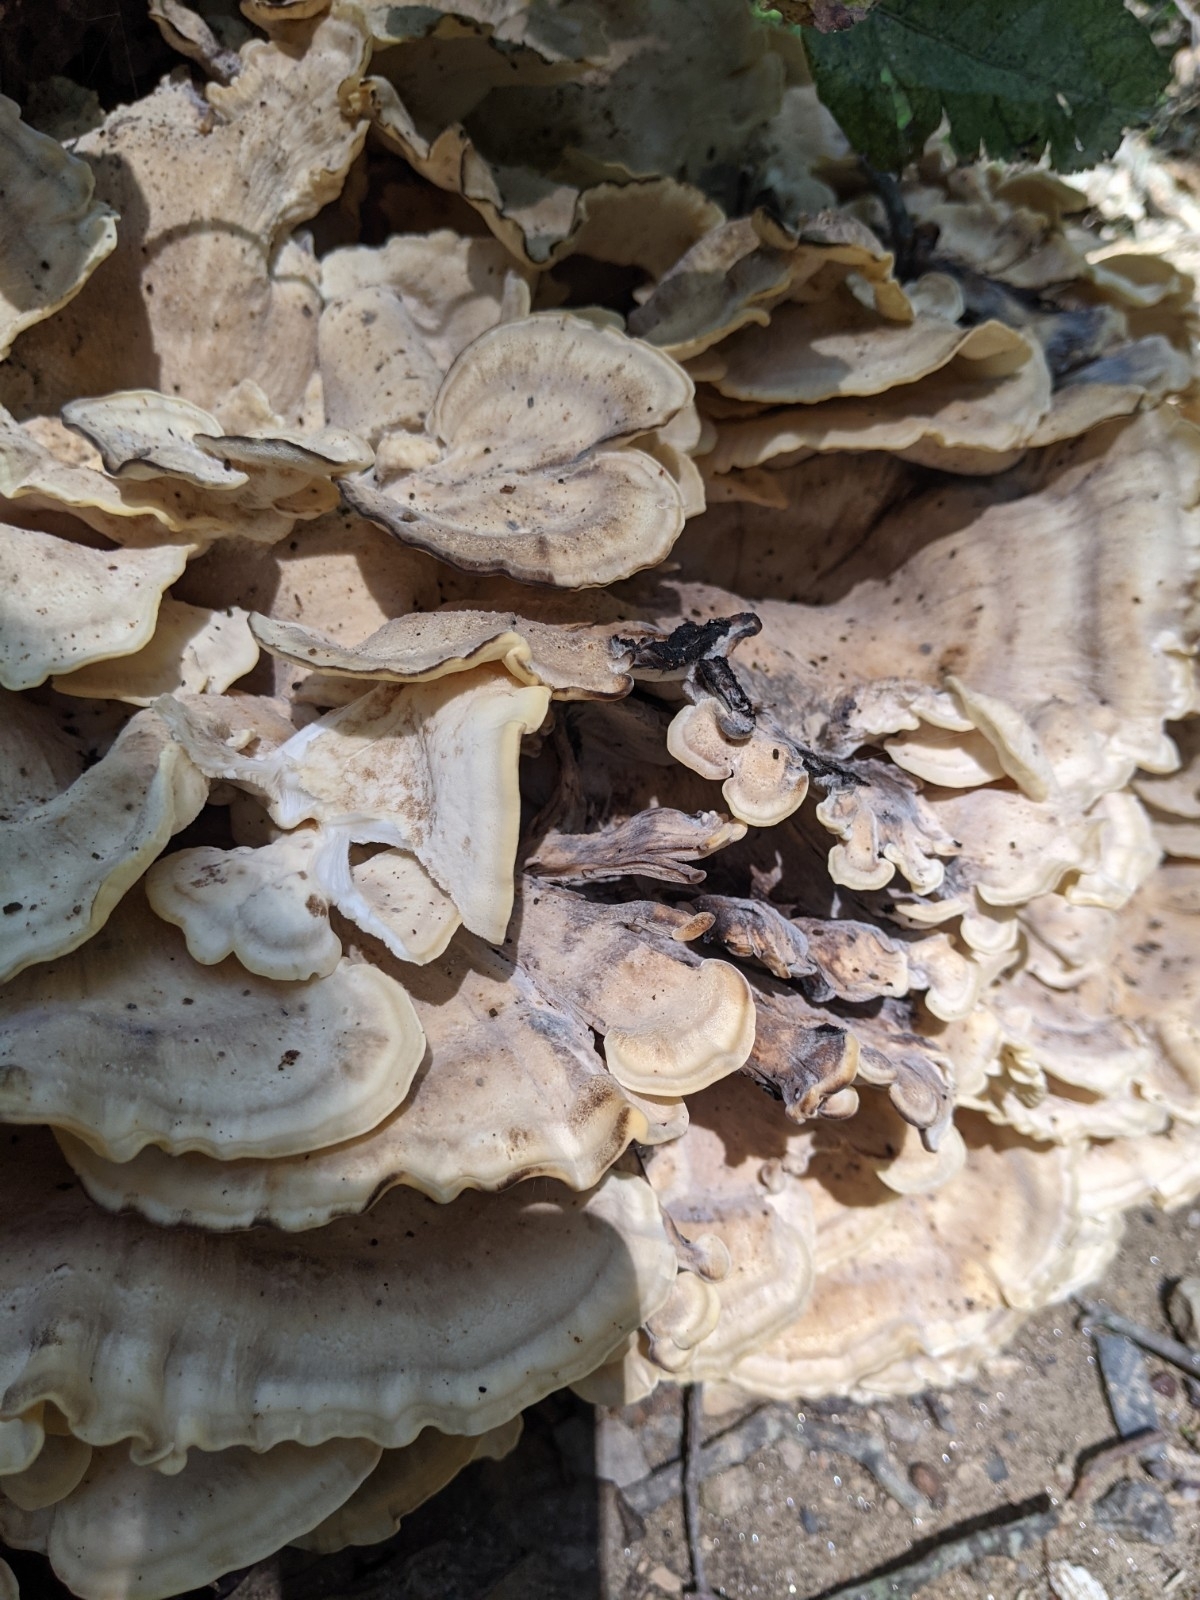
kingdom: Fungi
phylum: Basidiomycota
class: Agaricomycetes
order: Polyporales
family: Meripilaceae
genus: Meripilus
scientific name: Meripilus sumstinei
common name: Black-staining polypore
